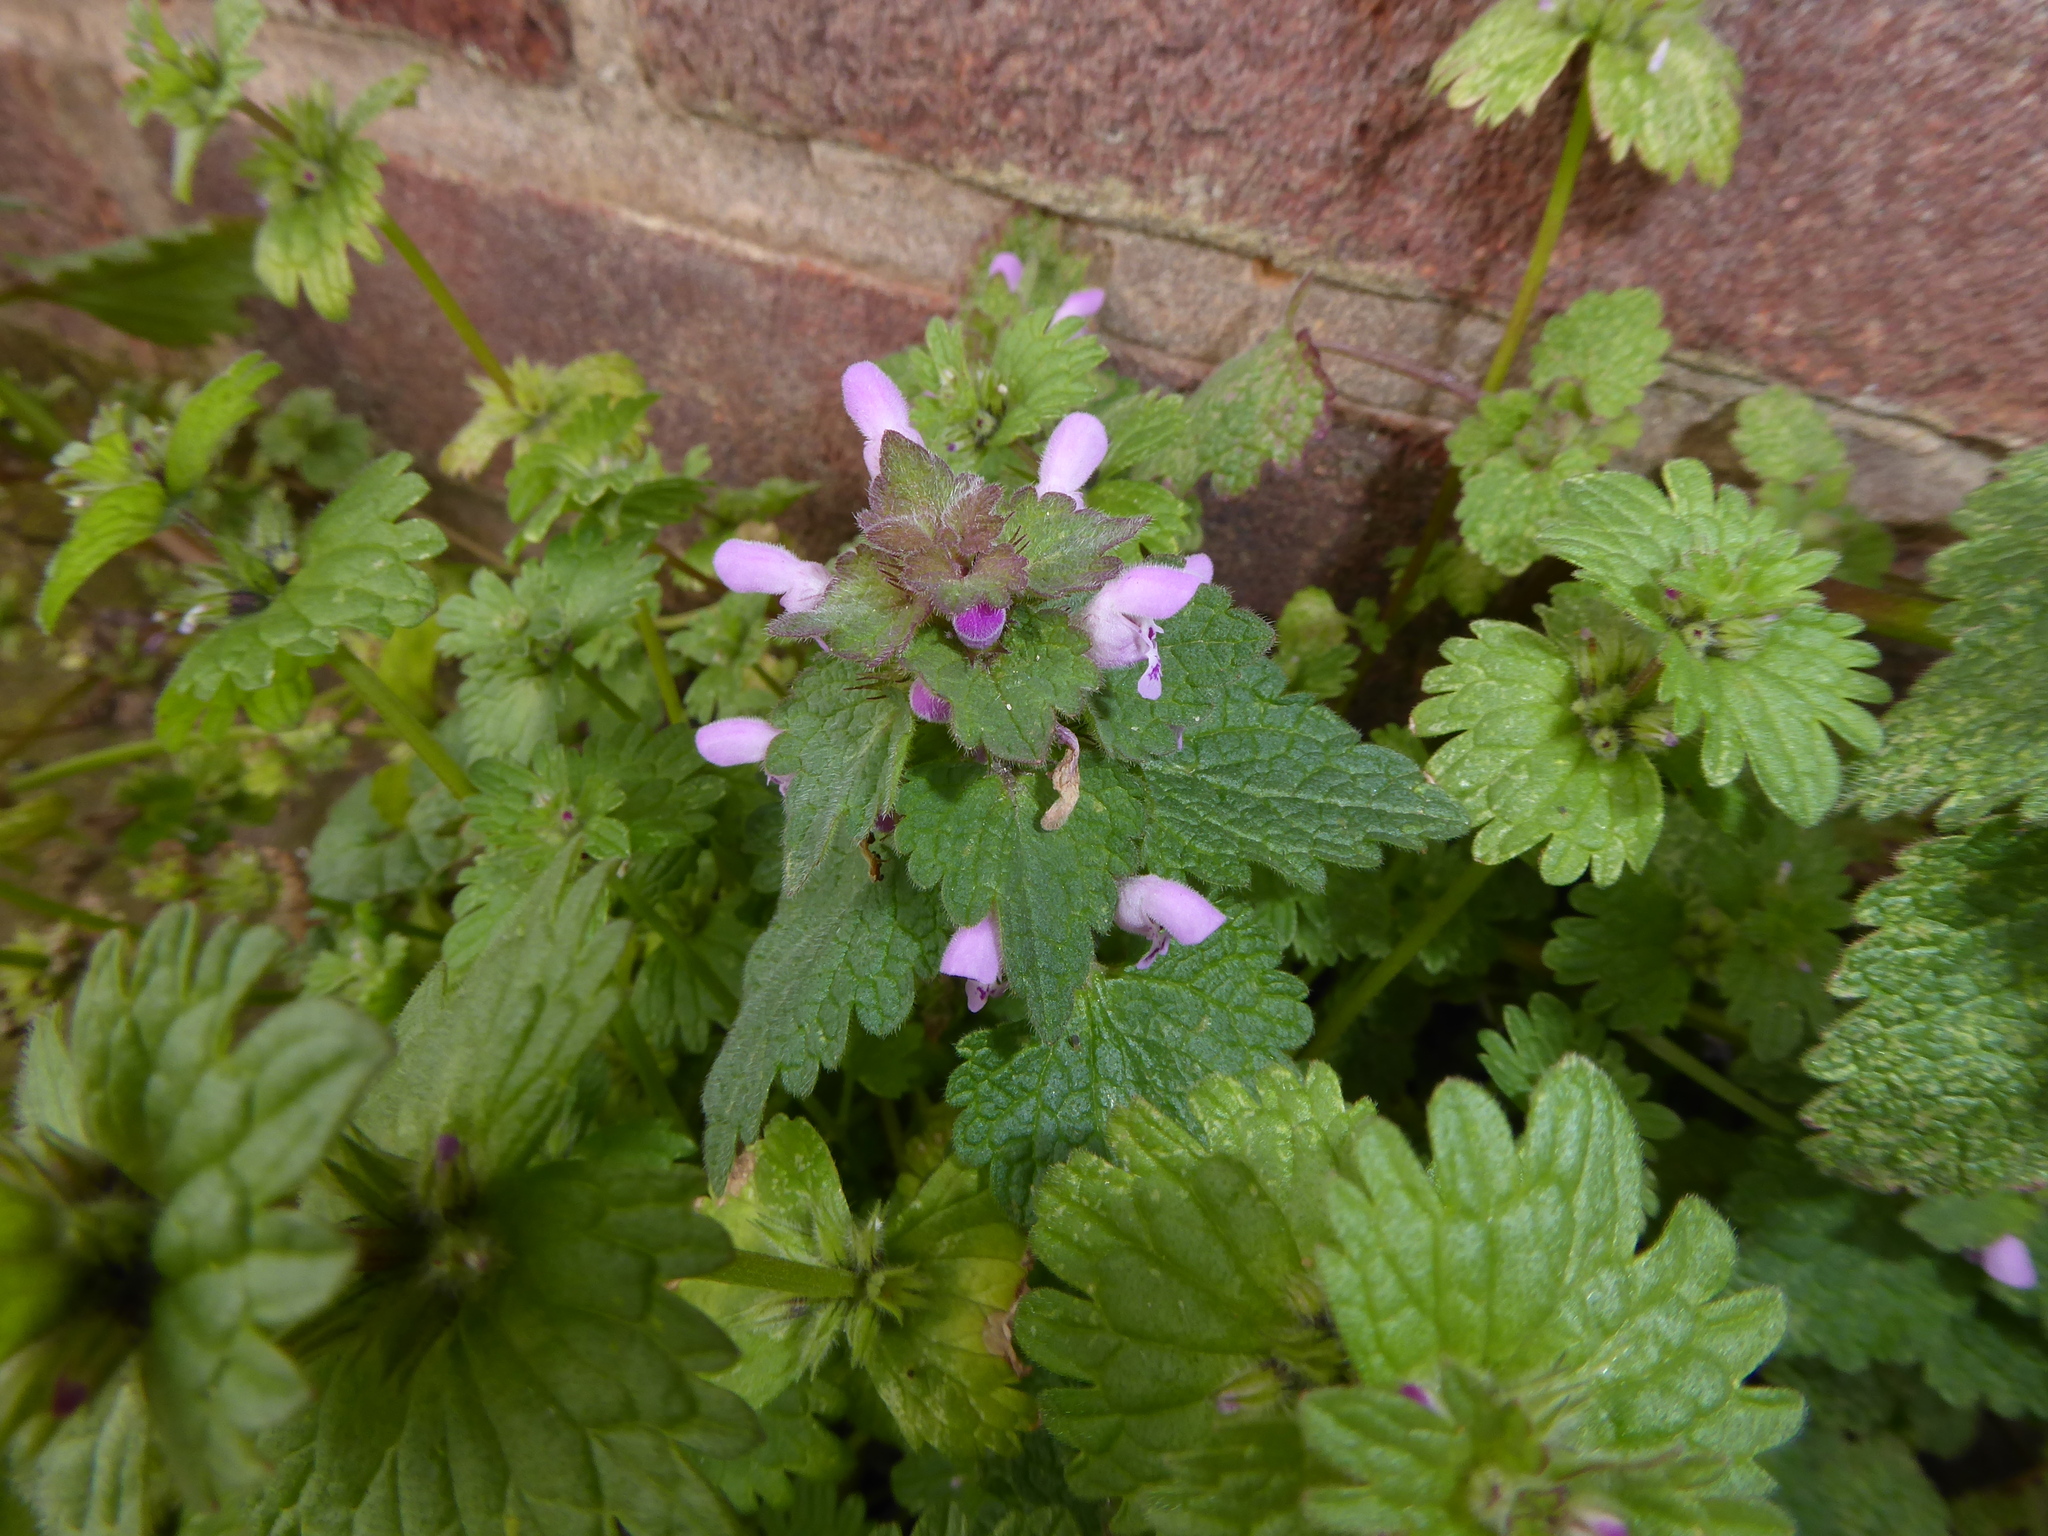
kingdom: Plantae
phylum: Tracheophyta
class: Magnoliopsida
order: Lamiales
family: Lamiaceae
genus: Lamium
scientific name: Lamium purpureum
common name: Red dead-nettle
